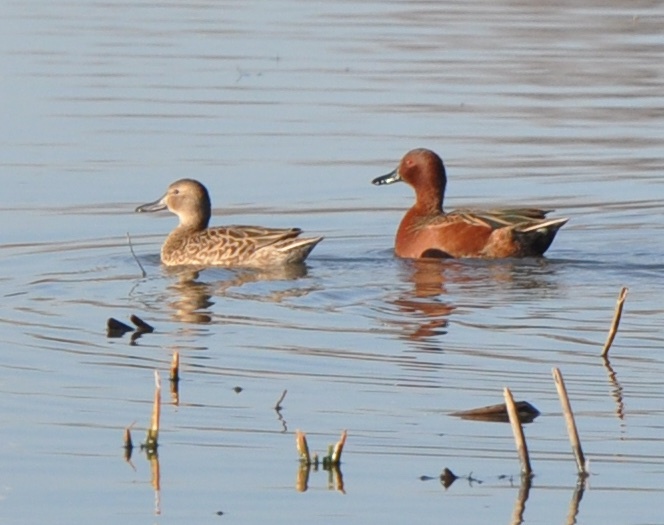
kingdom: Animalia
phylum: Chordata
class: Aves
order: Anseriformes
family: Anatidae
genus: Spatula
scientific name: Spatula cyanoptera
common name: Cinnamon teal
